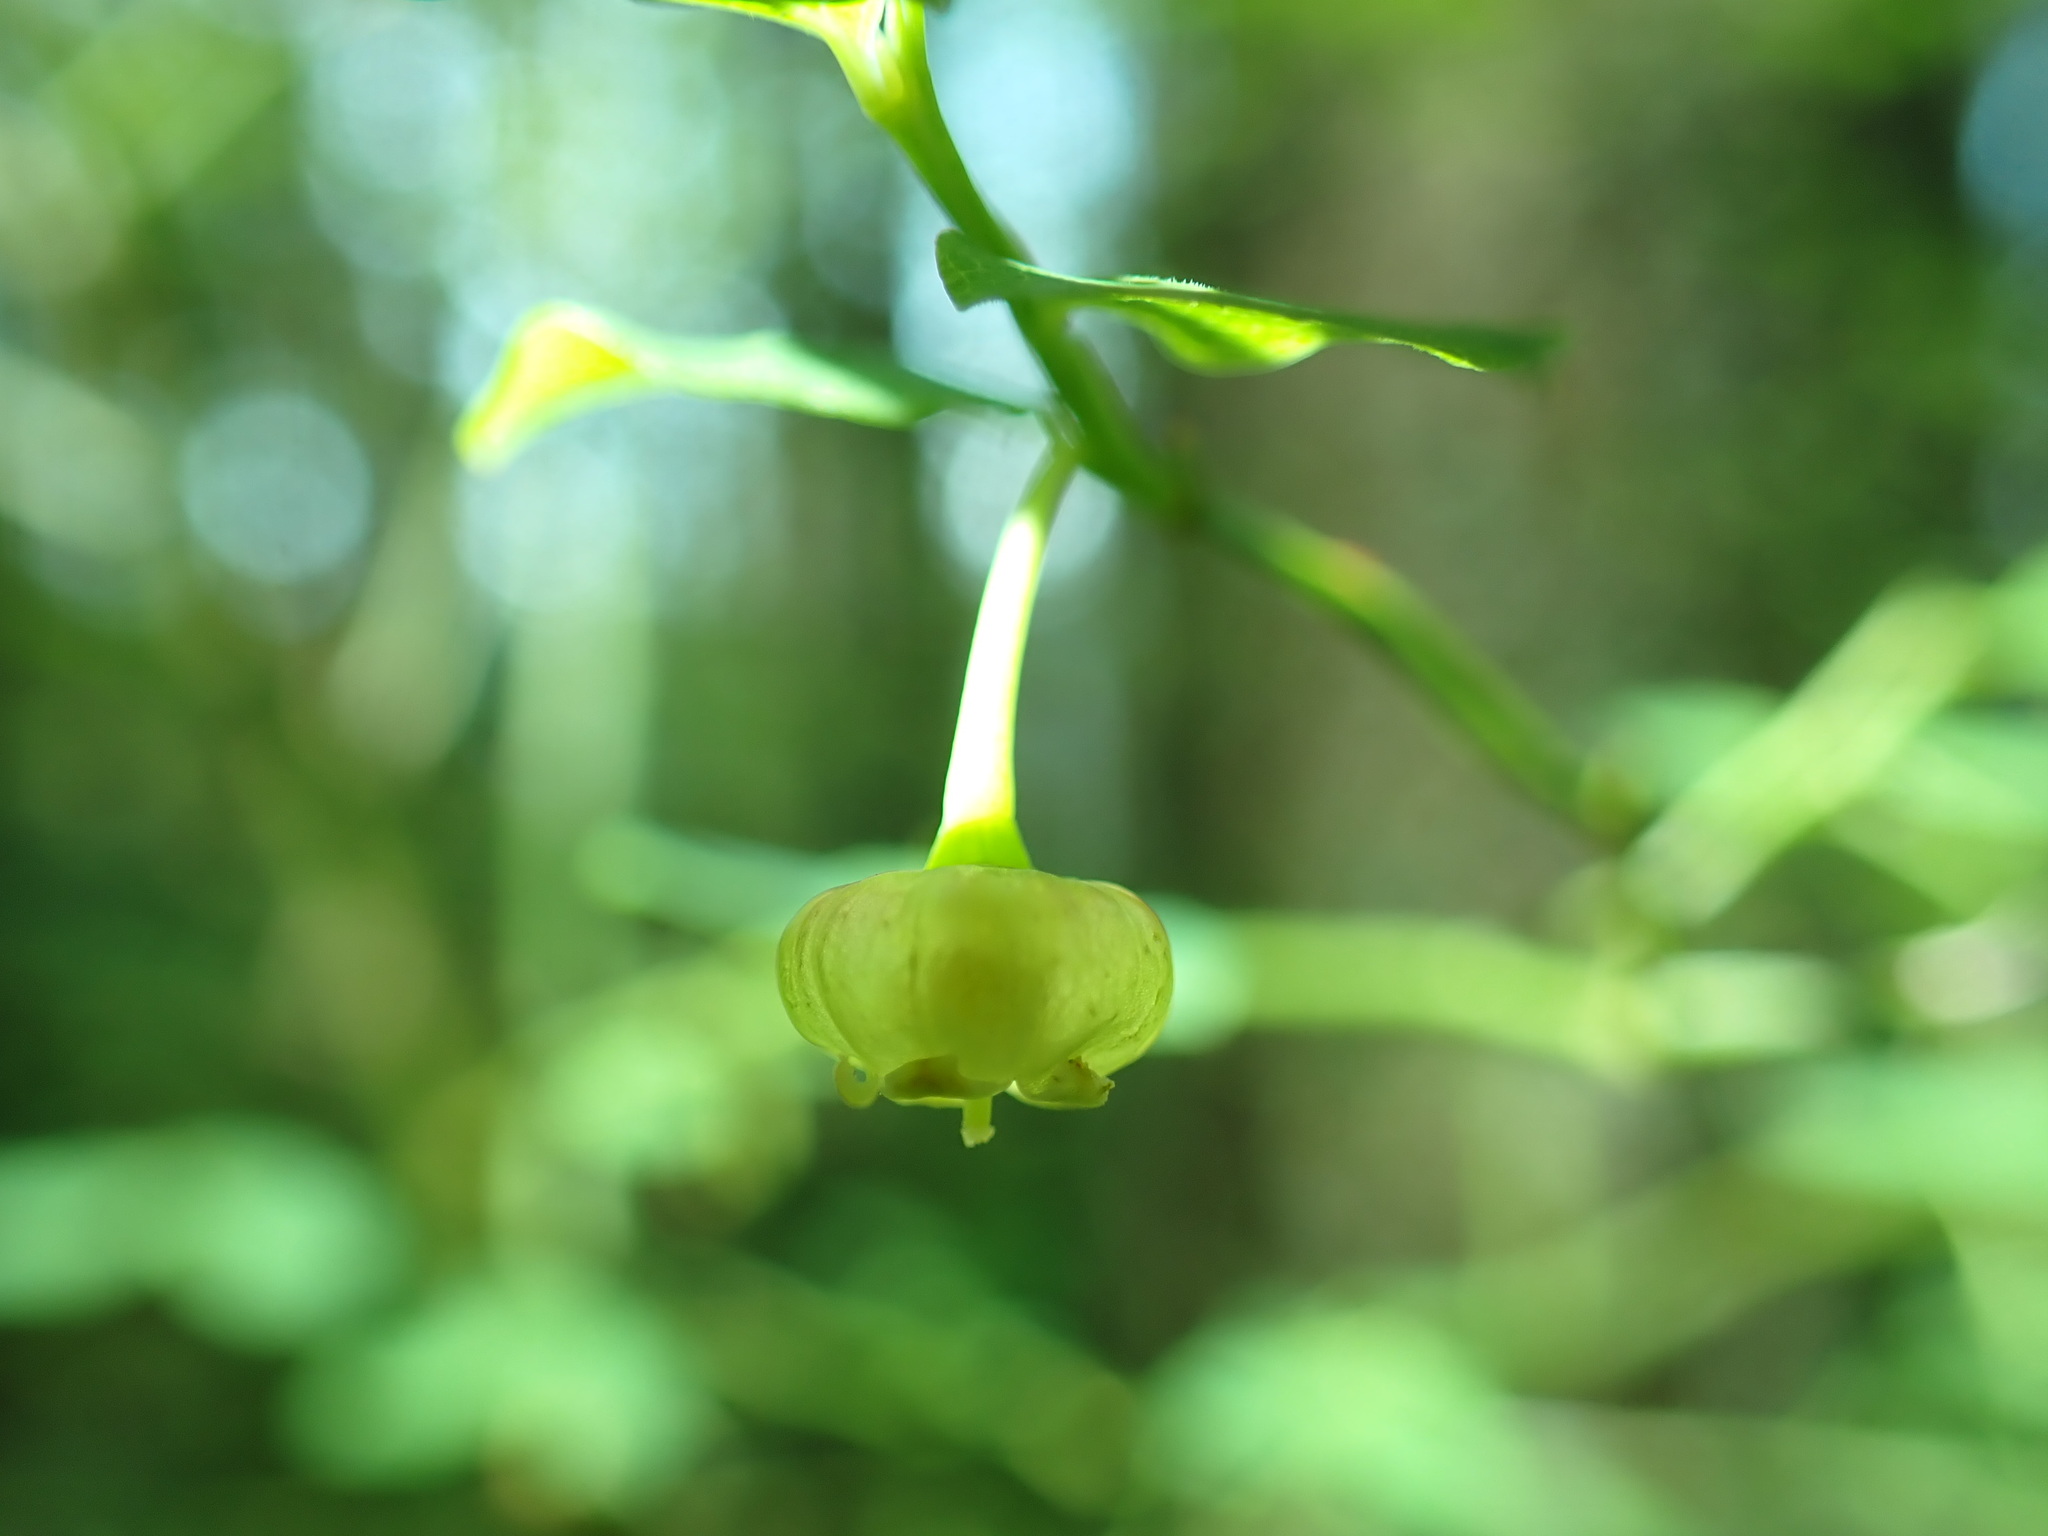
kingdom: Plantae
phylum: Tracheophyta
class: Magnoliopsida
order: Ericales
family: Ericaceae
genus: Vaccinium
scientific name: Vaccinium parvifolium
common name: Red-huckleberry
